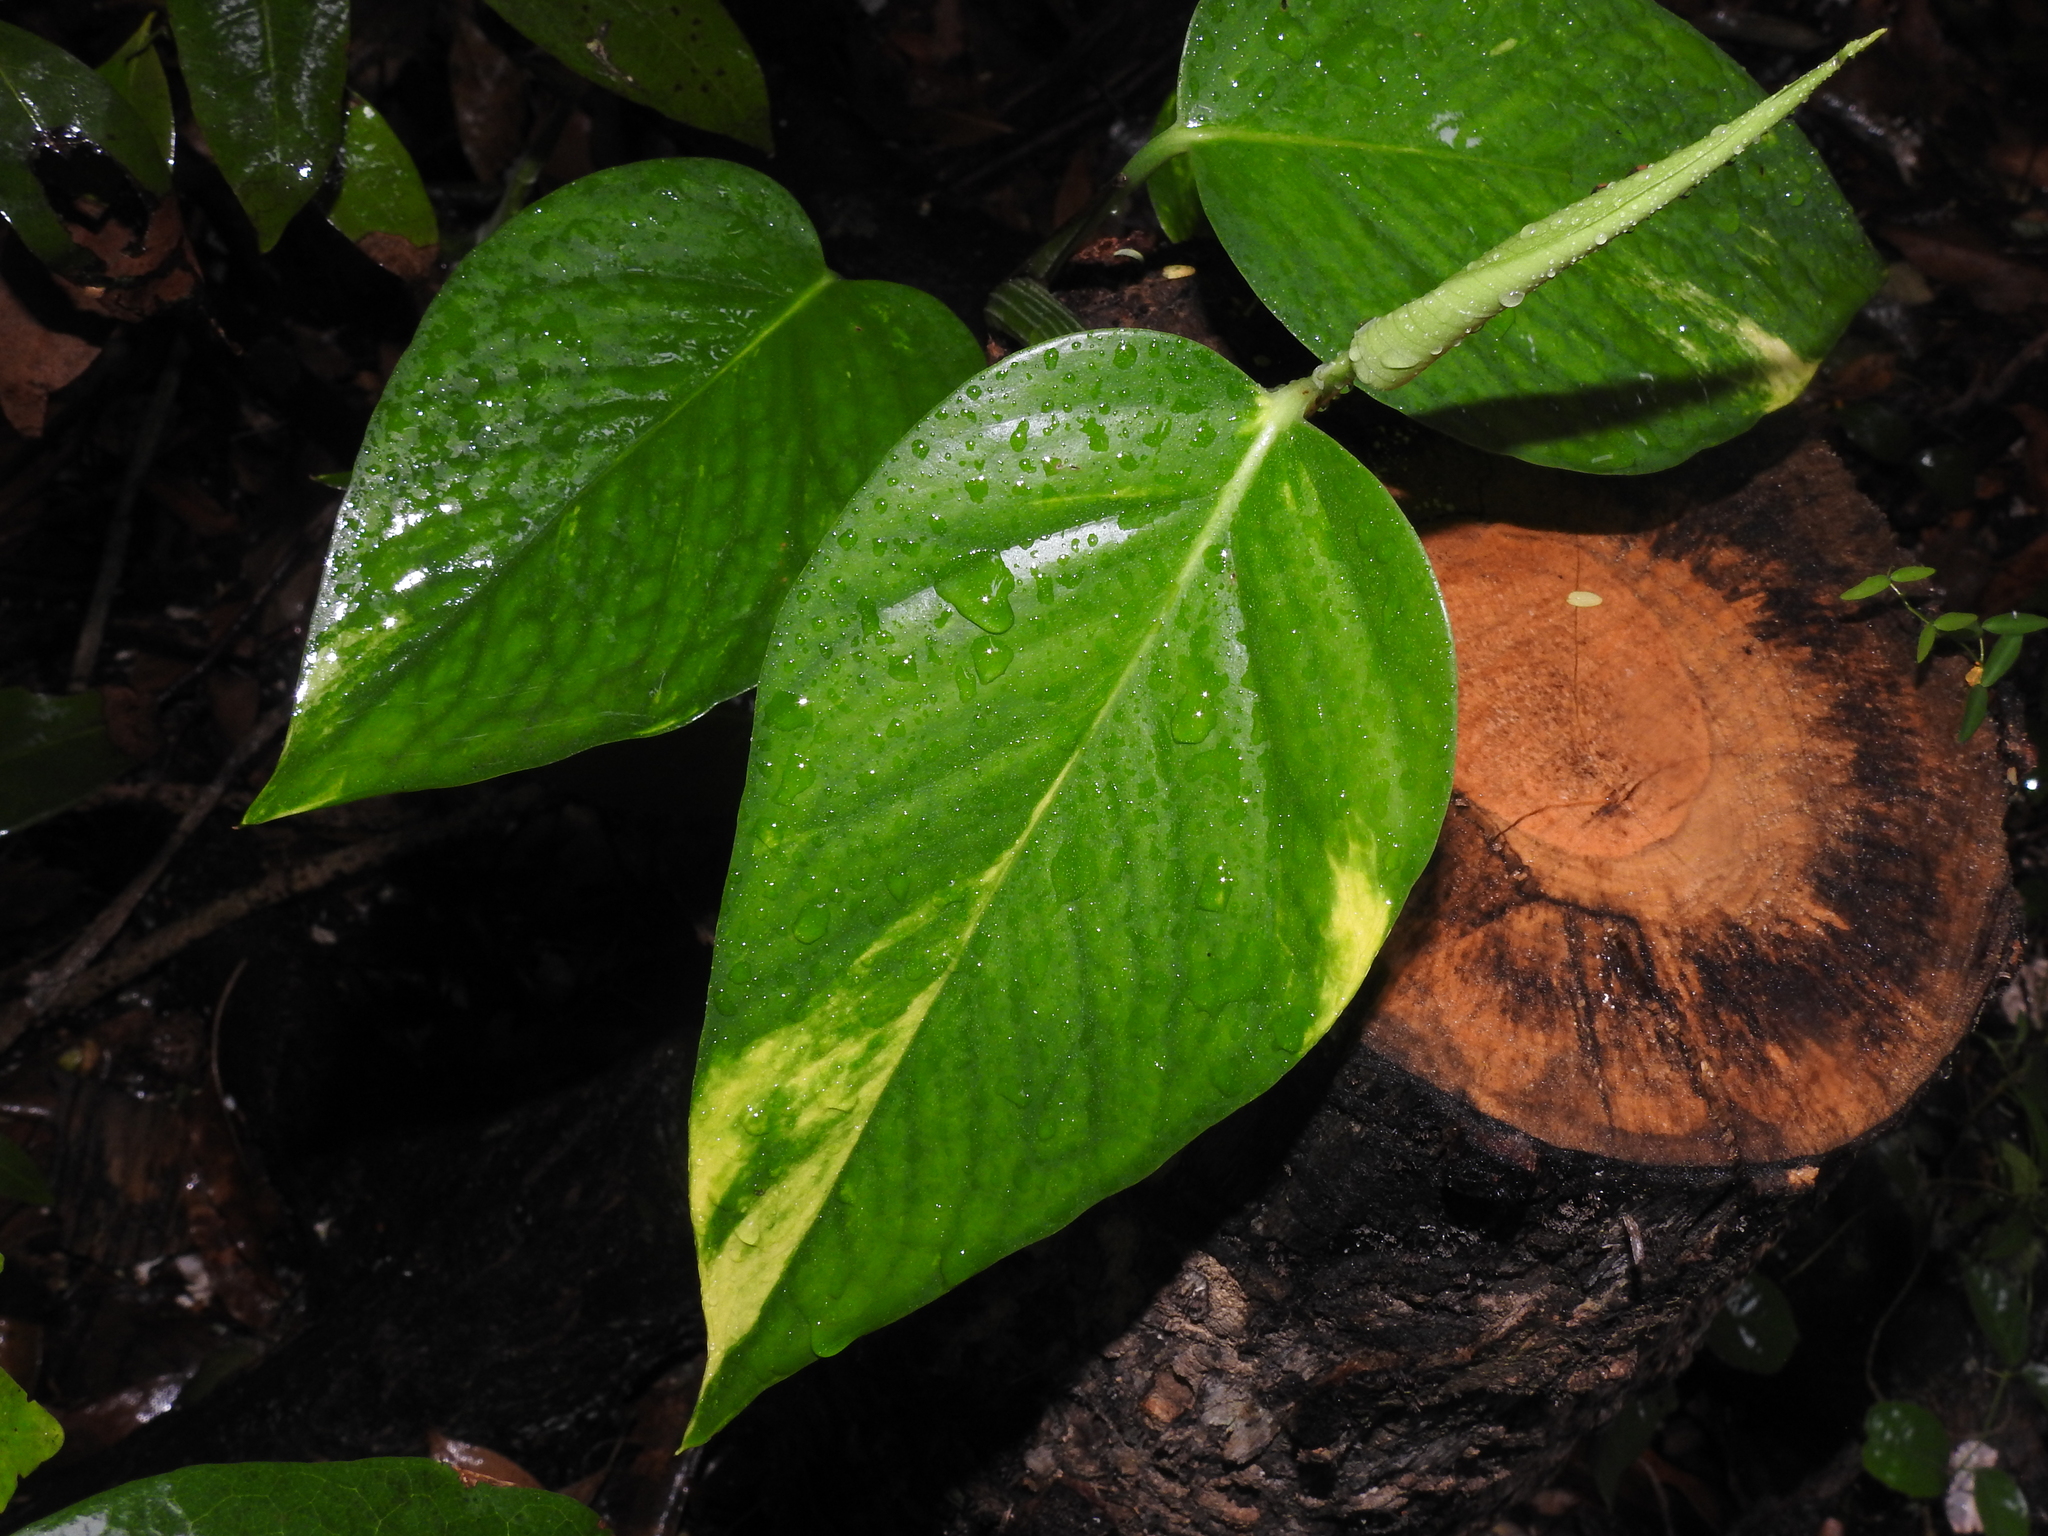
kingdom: Plantae
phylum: Tracheophyta
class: Liliopsida
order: Alismatales
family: Araceae
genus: Epipremnum
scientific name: Epipremnum aureum
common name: Golden hunter's-robe
